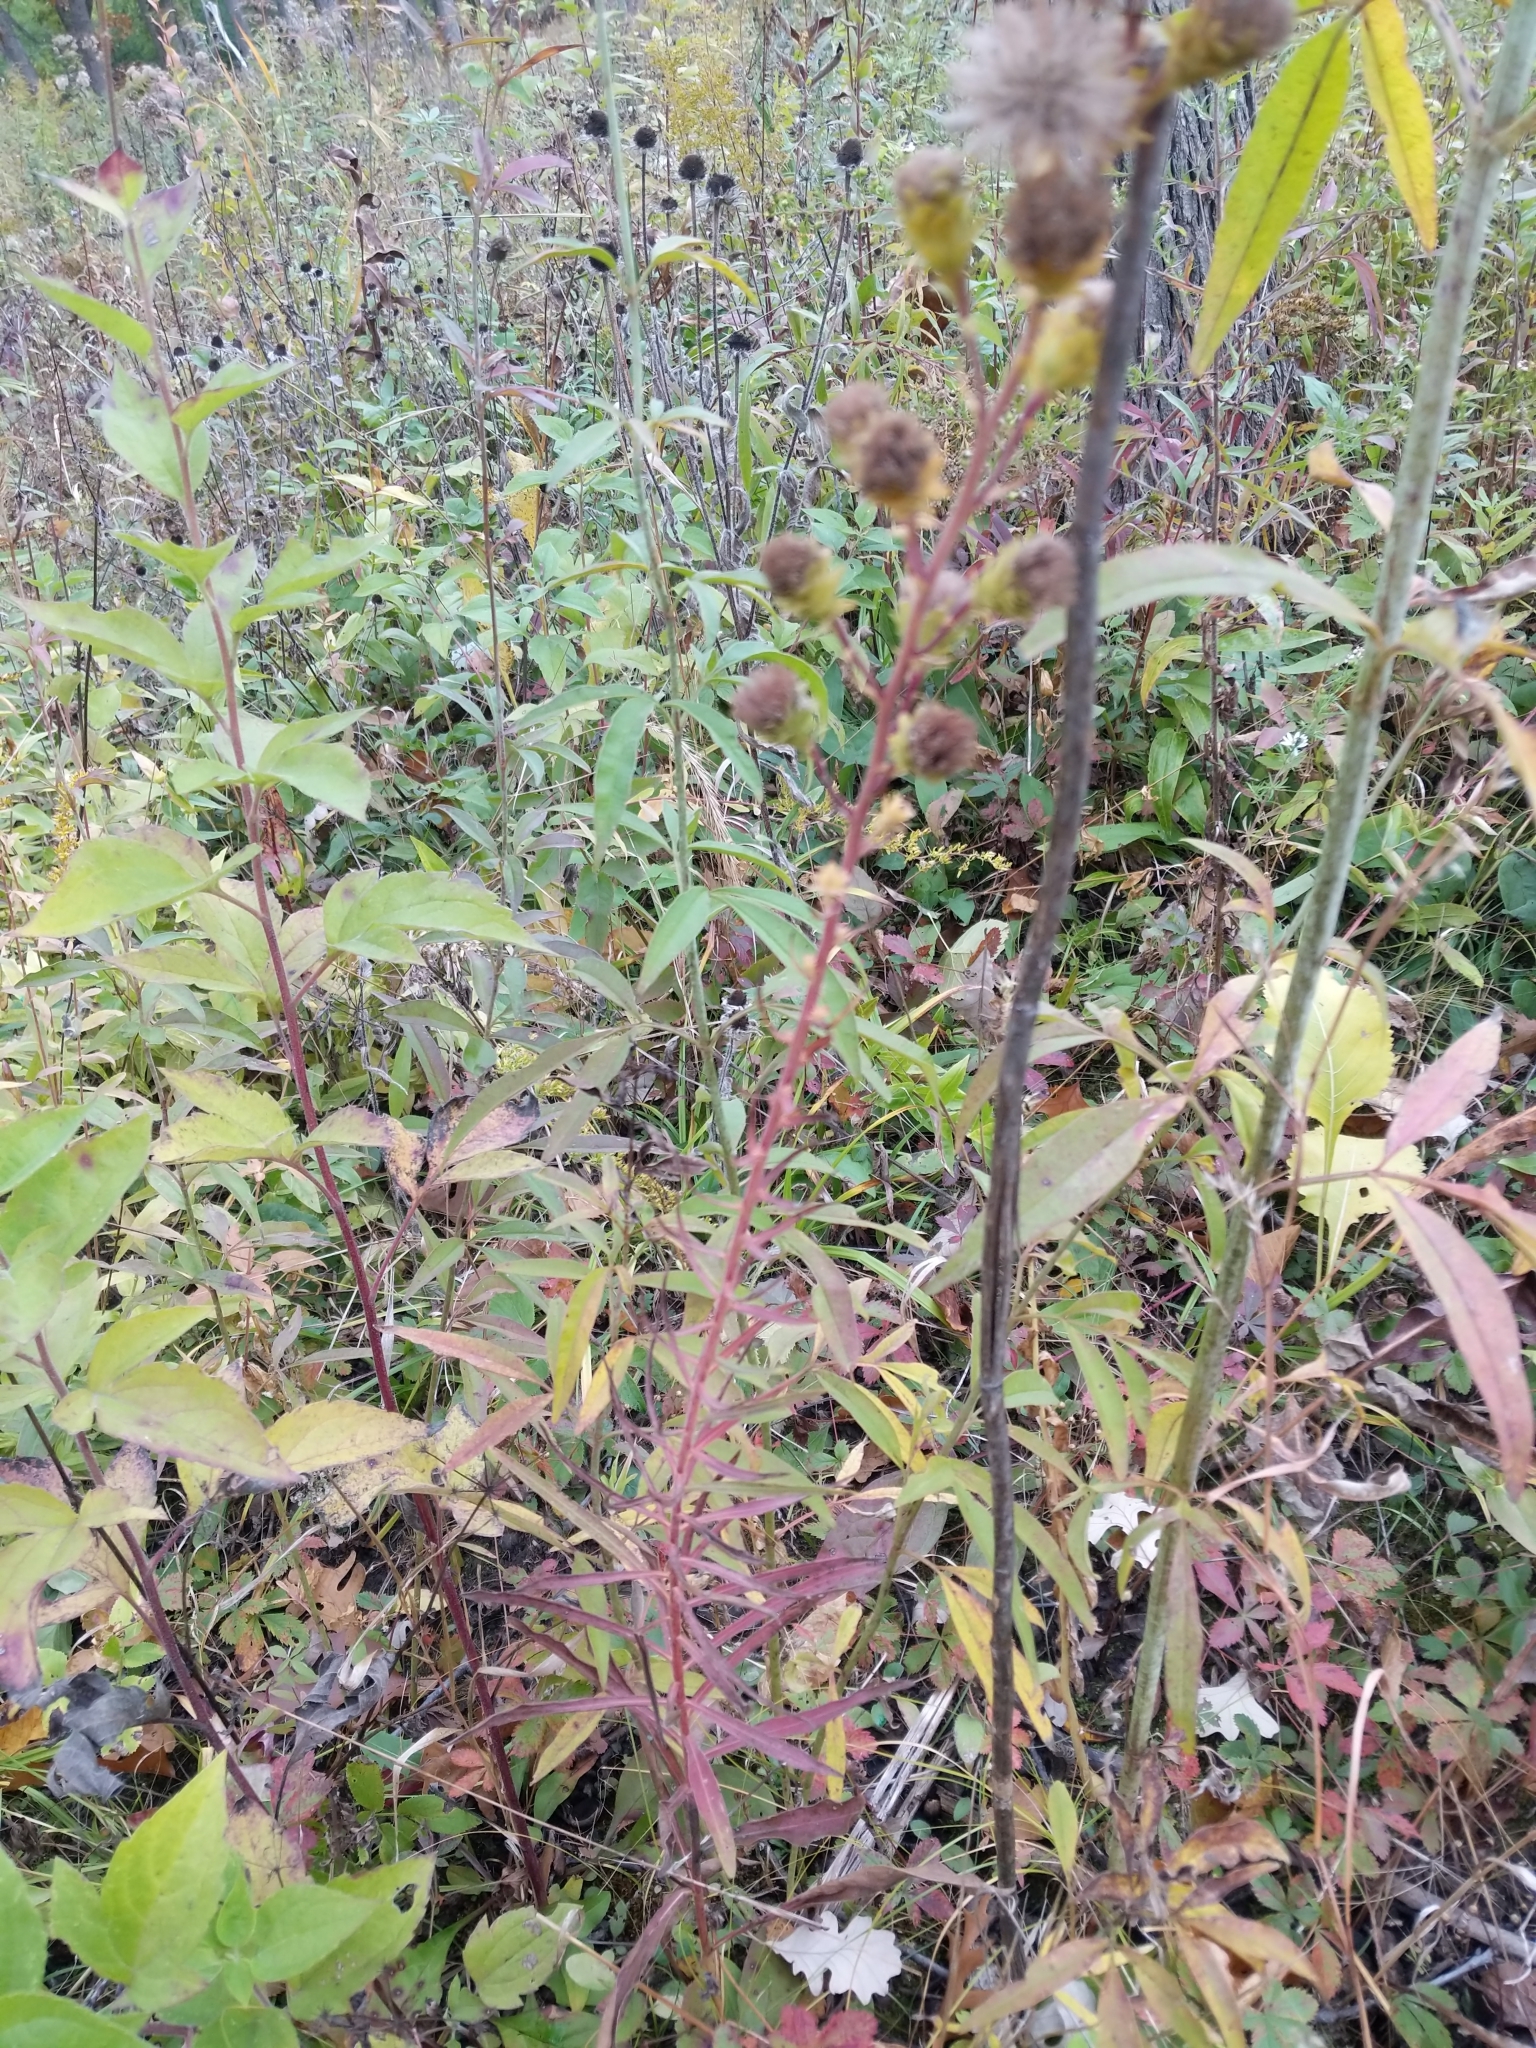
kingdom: Plantae
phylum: Tracheophyta
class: Magnoliopsida
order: Asterales
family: Asteraceae
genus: Liatris
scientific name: Liatris scariosa
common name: Northern gayfeather
